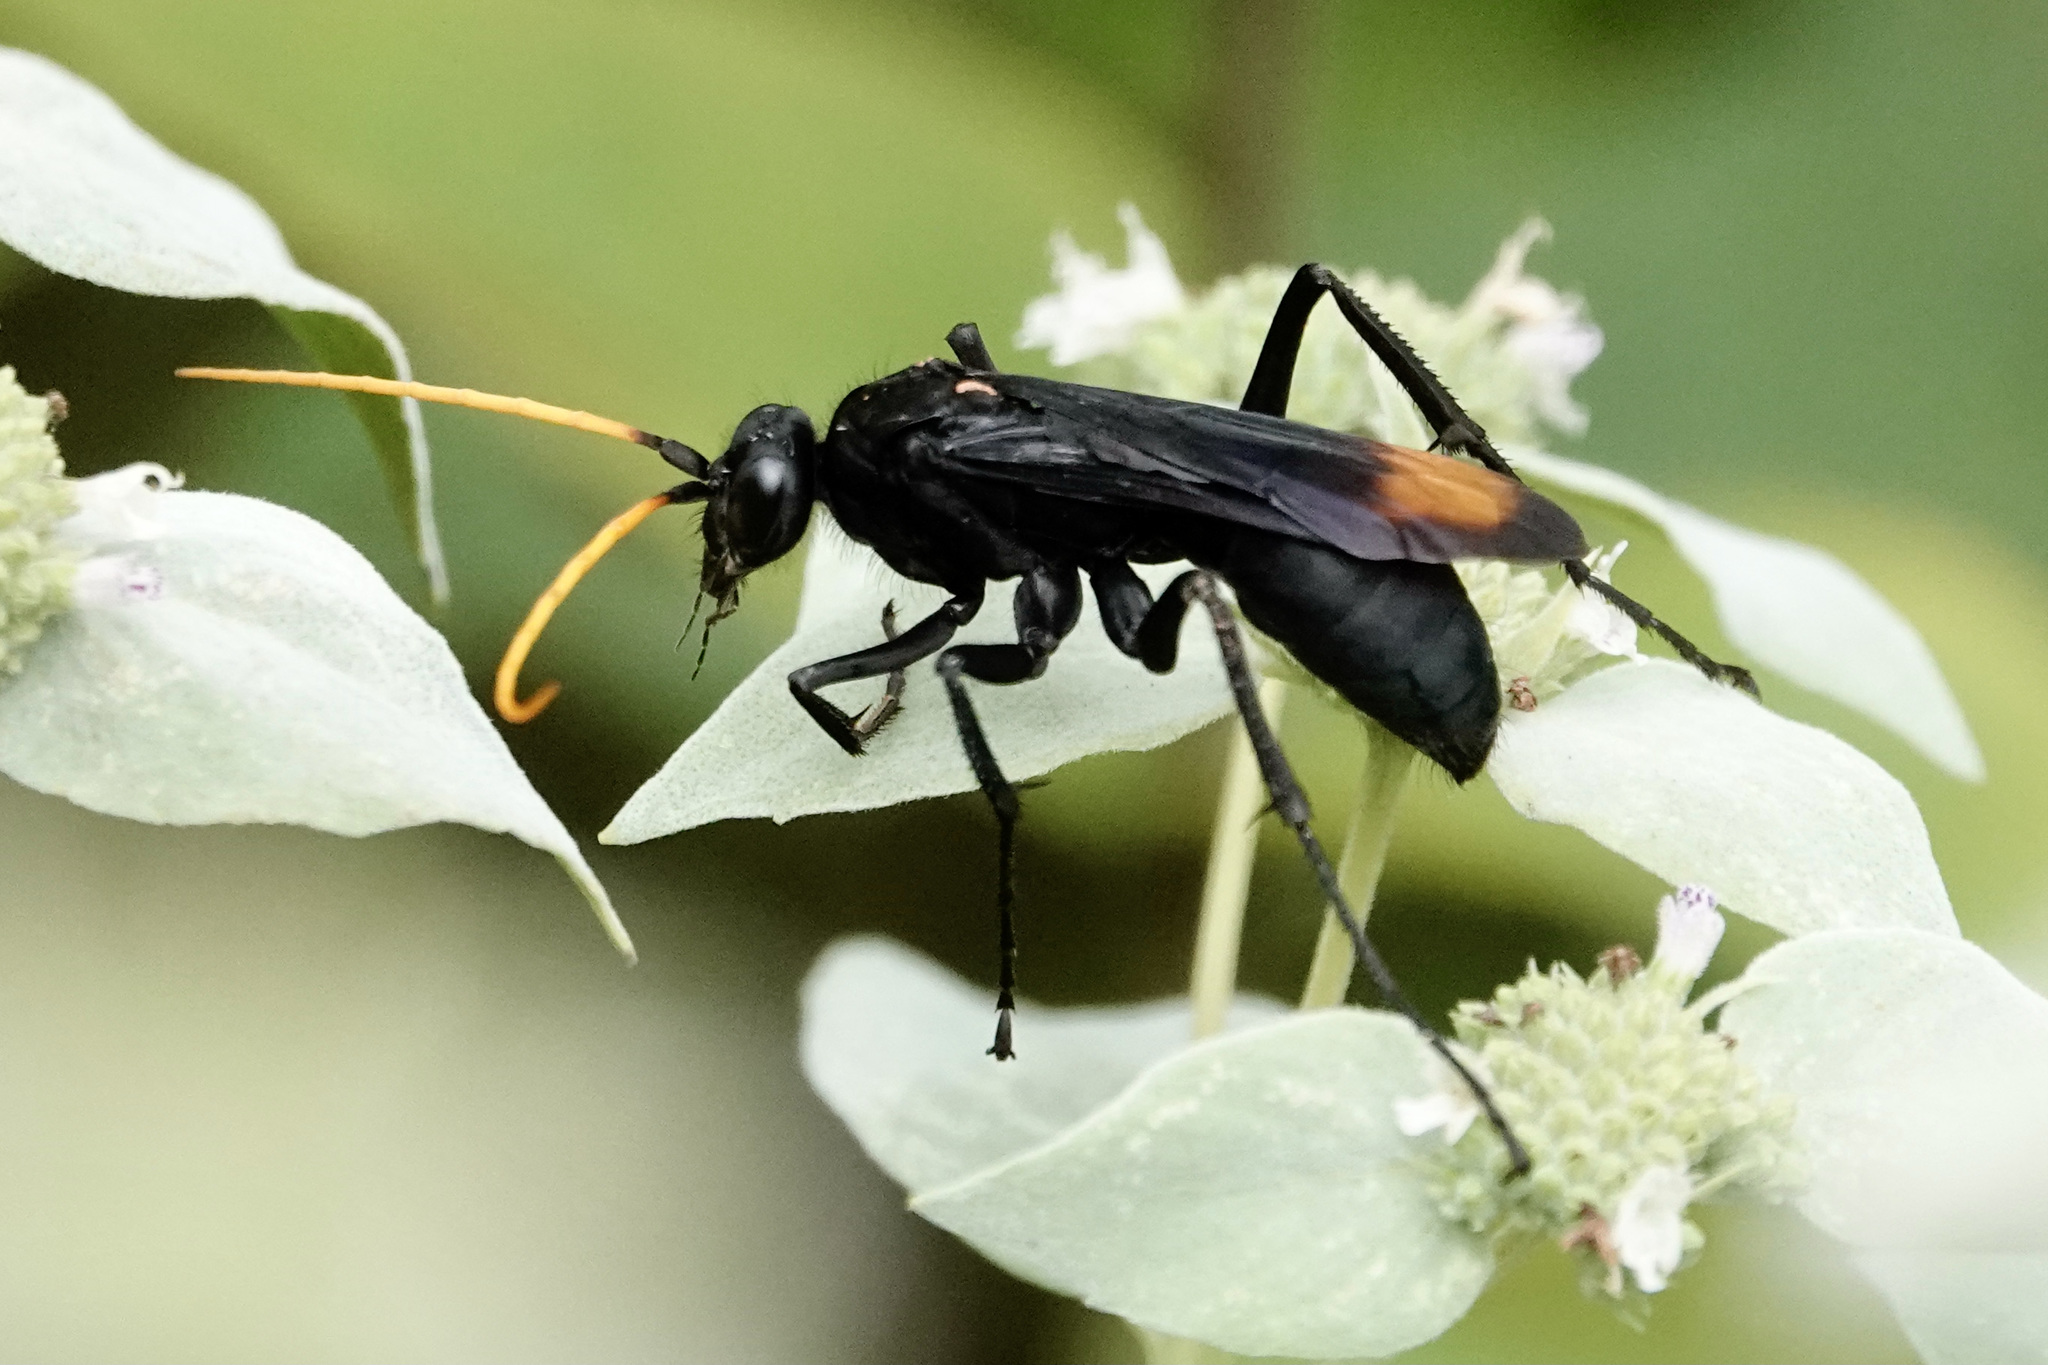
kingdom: Animalia
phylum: Arthropoda
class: Insecta
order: Hymenoptera
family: Pompilidae
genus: Entypus
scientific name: Entypus unifasciatus
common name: Eastern tawny-horned spider wasp
